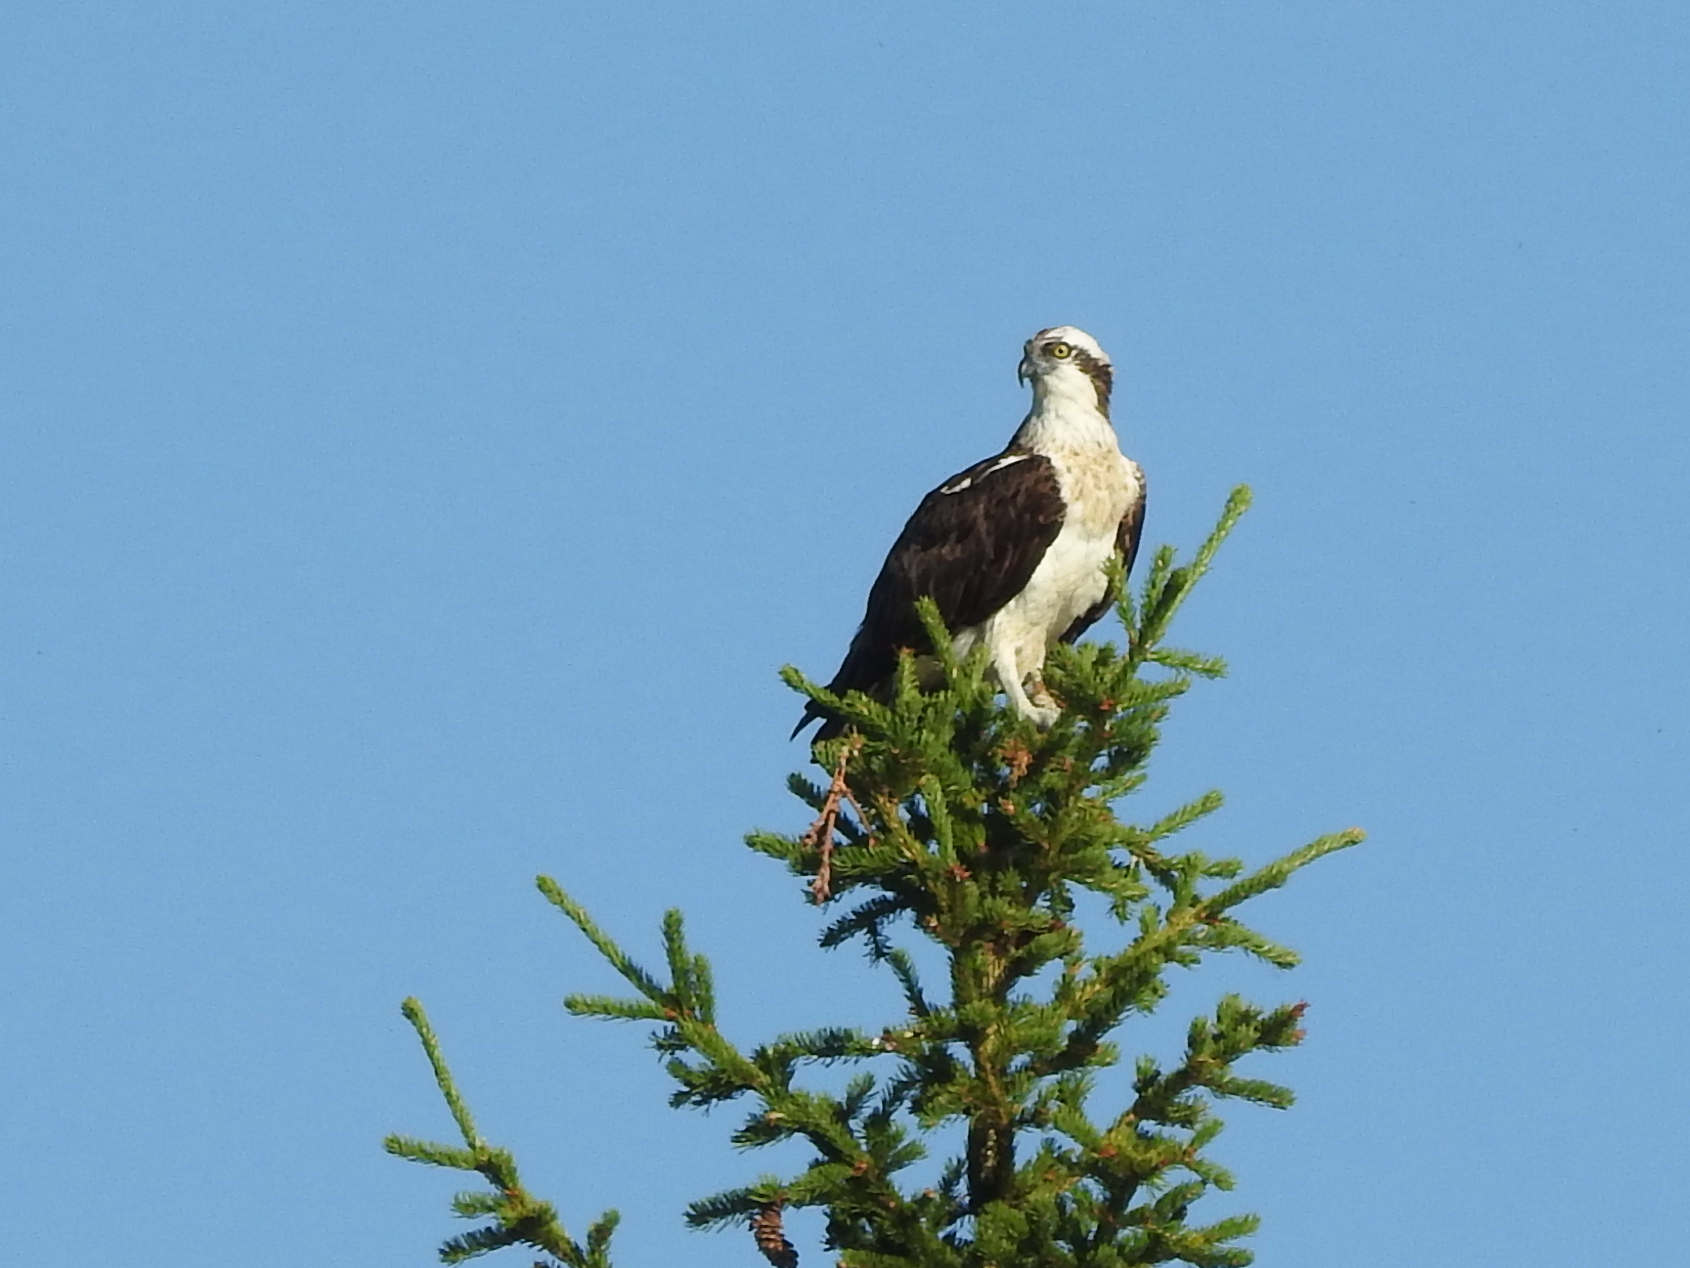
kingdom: Animalia
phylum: Chordata
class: Aves
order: Accipitriformes
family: Pandionidae
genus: Pandion
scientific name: Pandion haliaetus
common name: Osprey
